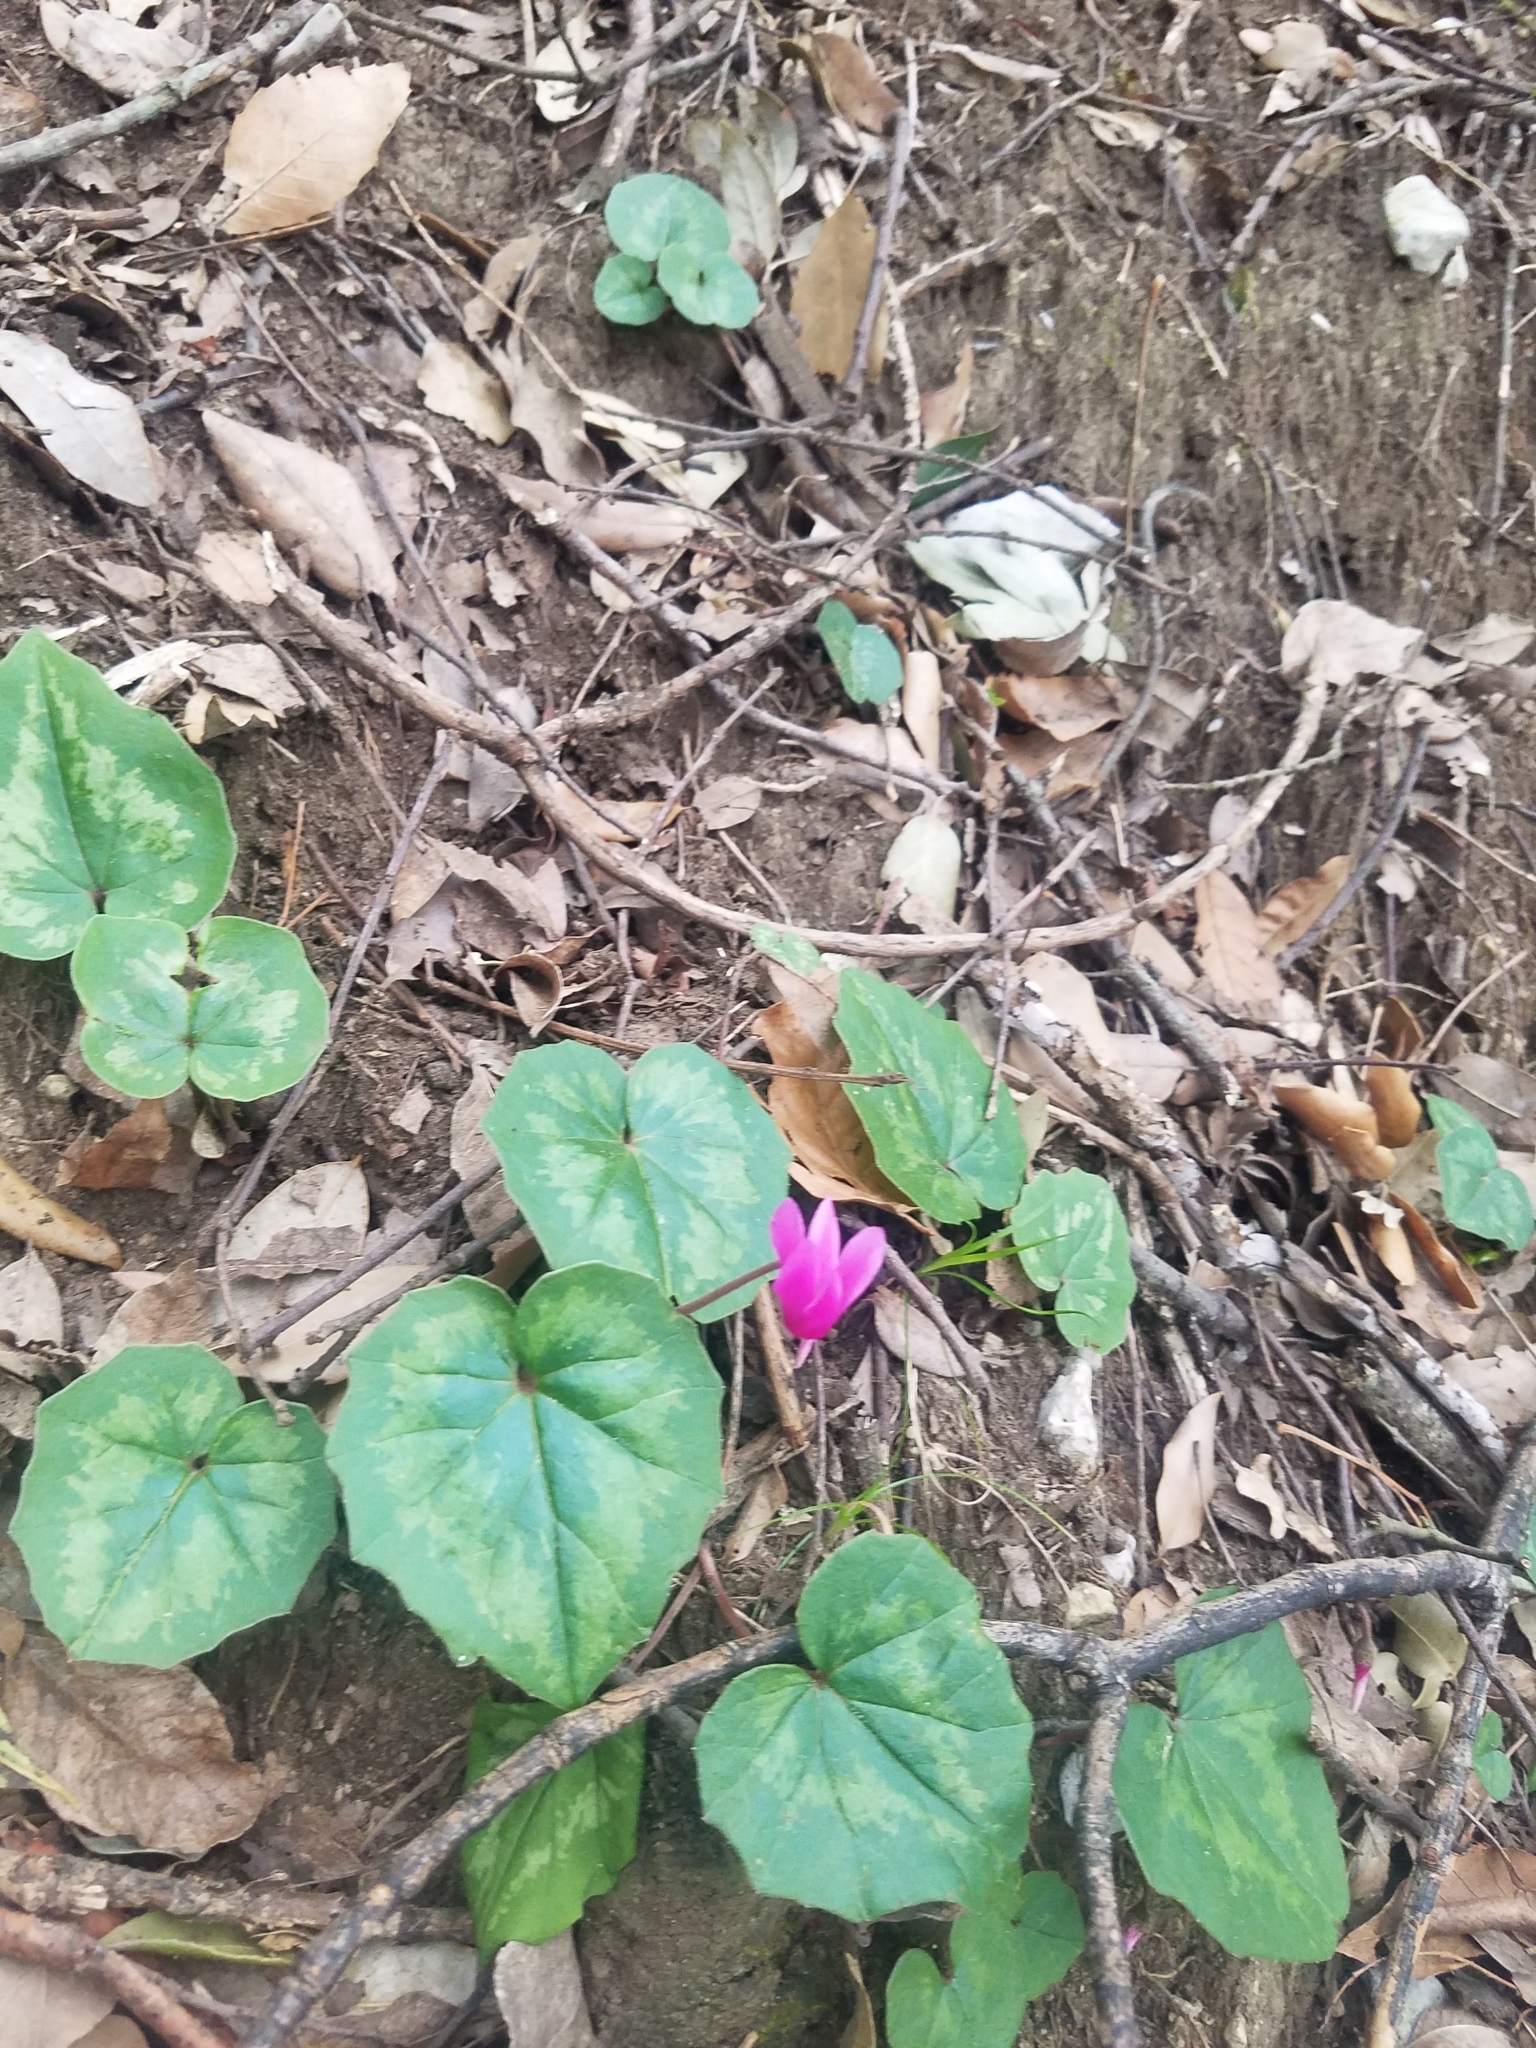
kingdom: Plantae
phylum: Tracheophyta
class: Magnoliopsida
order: Ericales
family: Primulaceae
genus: Cyclamen
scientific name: Cyclamen repandum
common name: Spring sowbread
